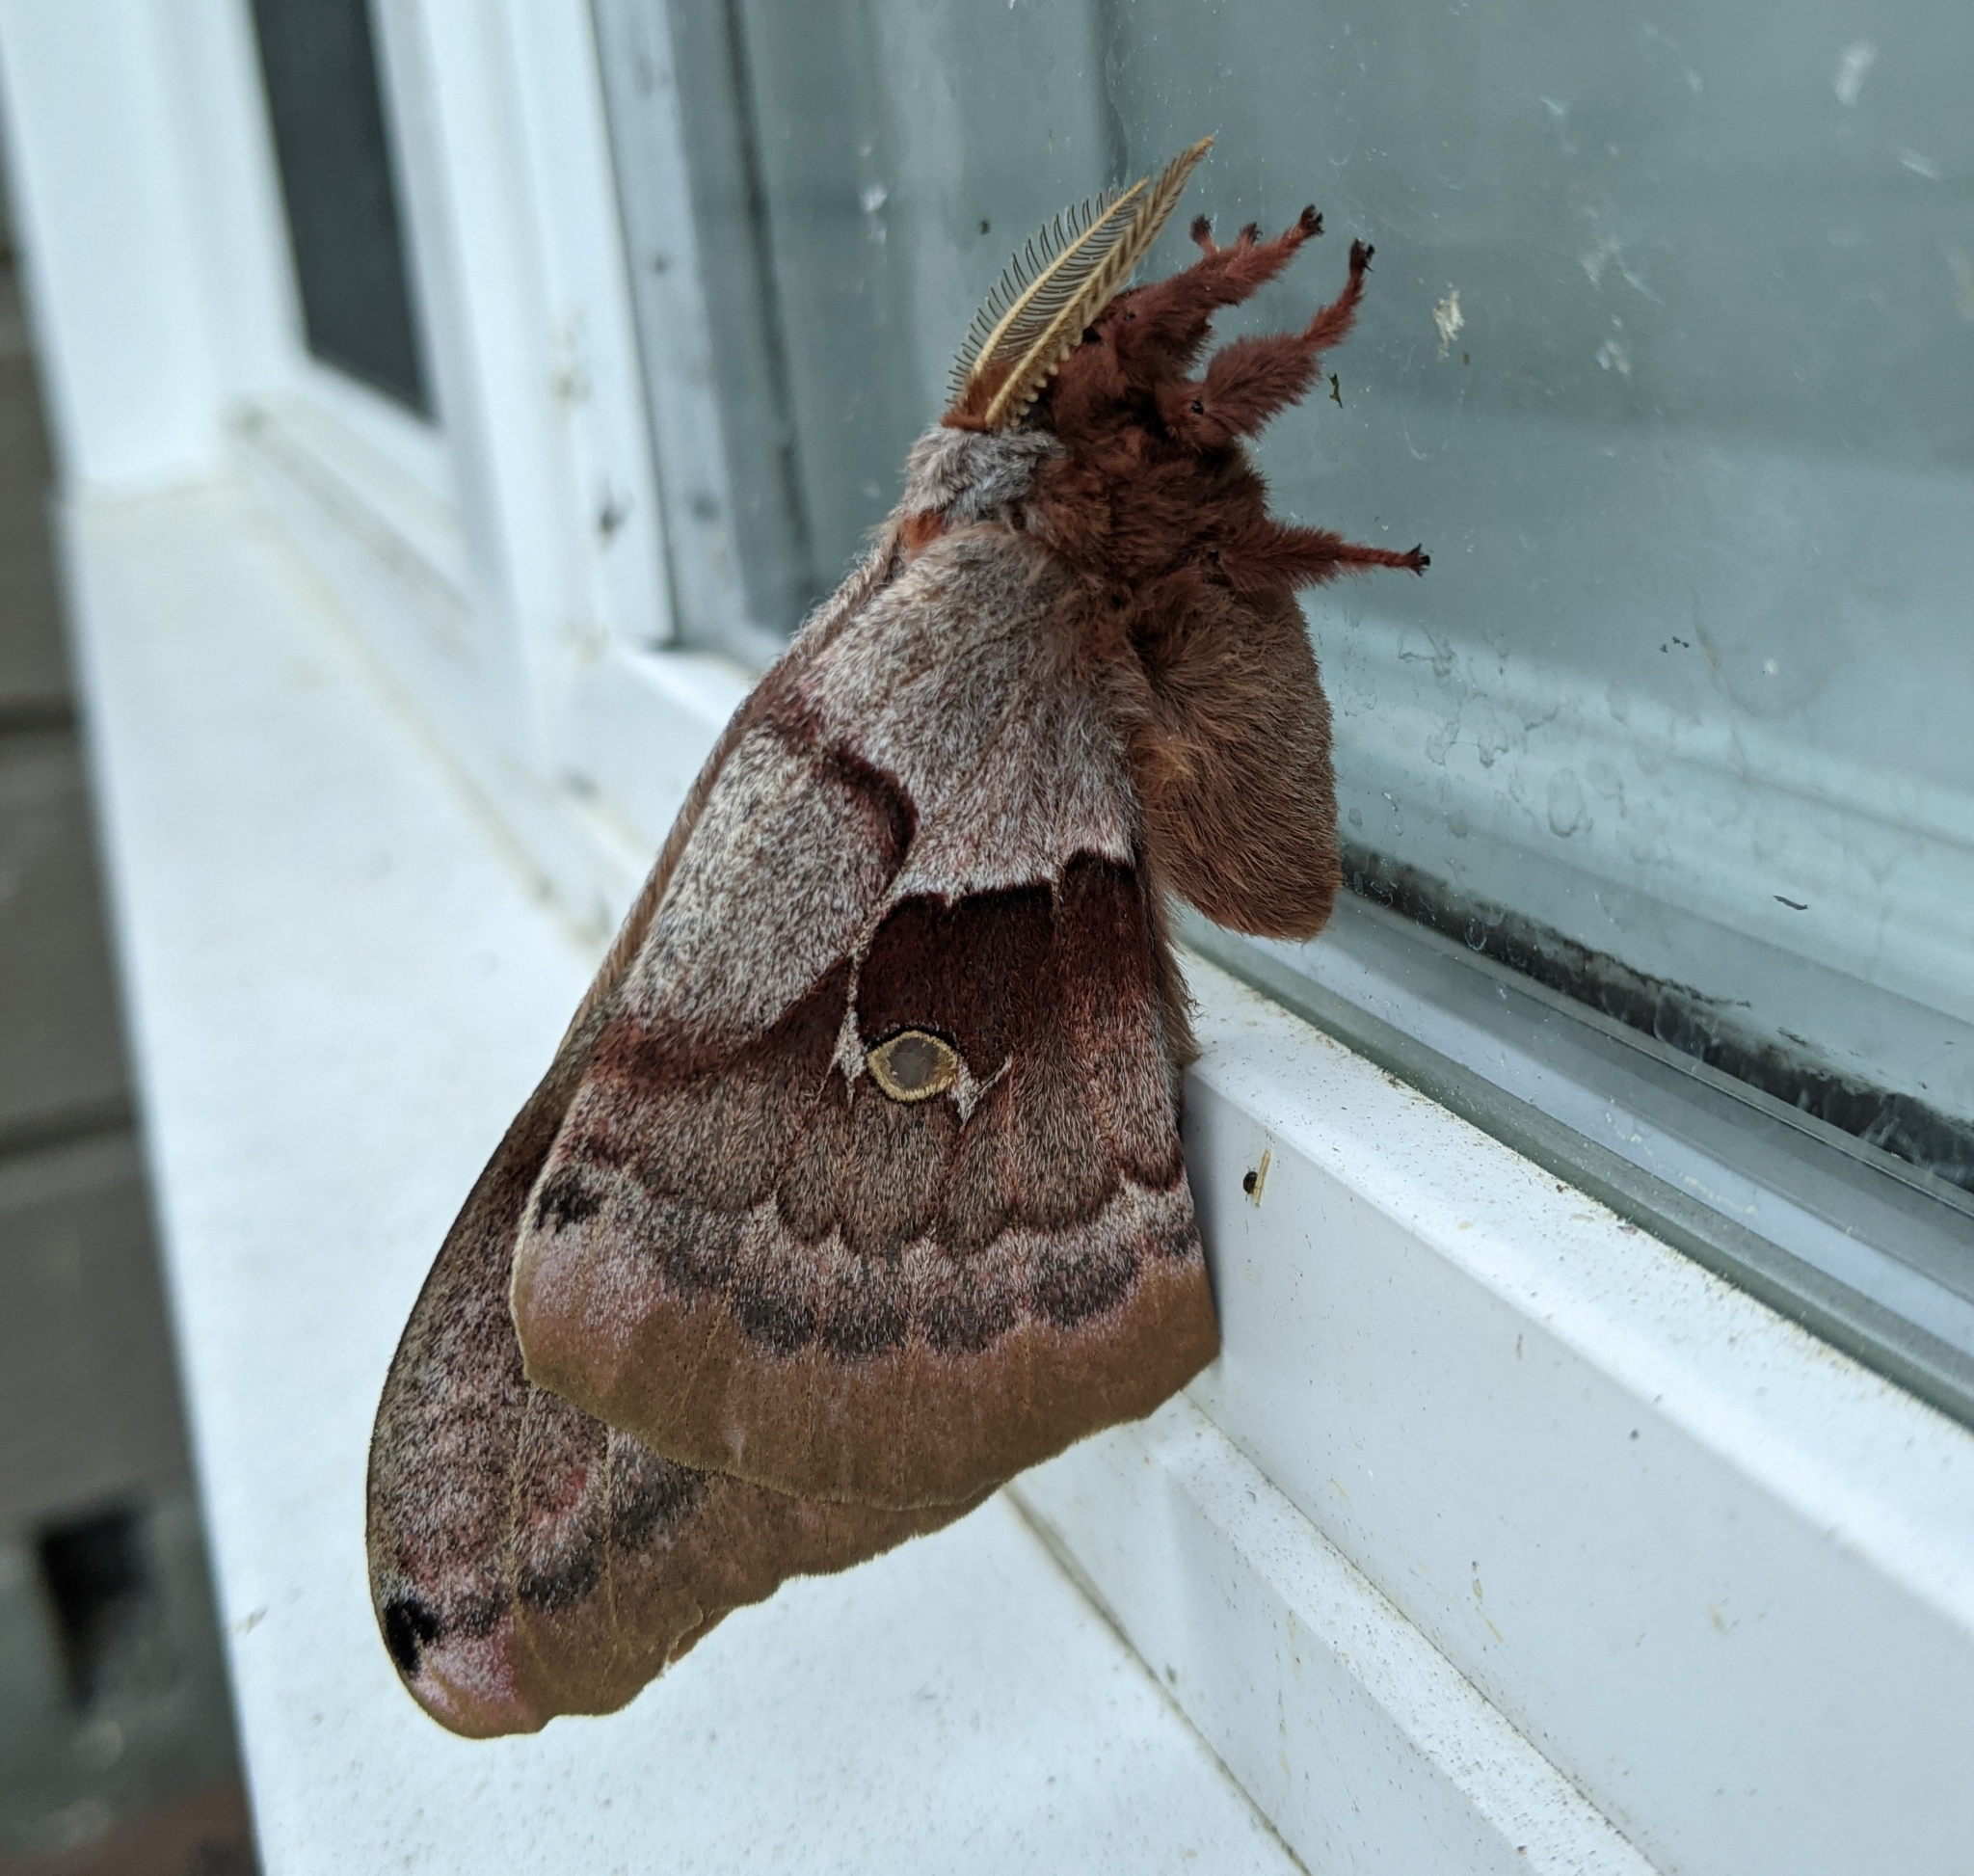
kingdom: Animalia
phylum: Arthropoda
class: Insecta
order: Lepidoptera
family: Saturniidae
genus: Antheraea
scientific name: Antheraea polyphemus
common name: Polyphemus moth
